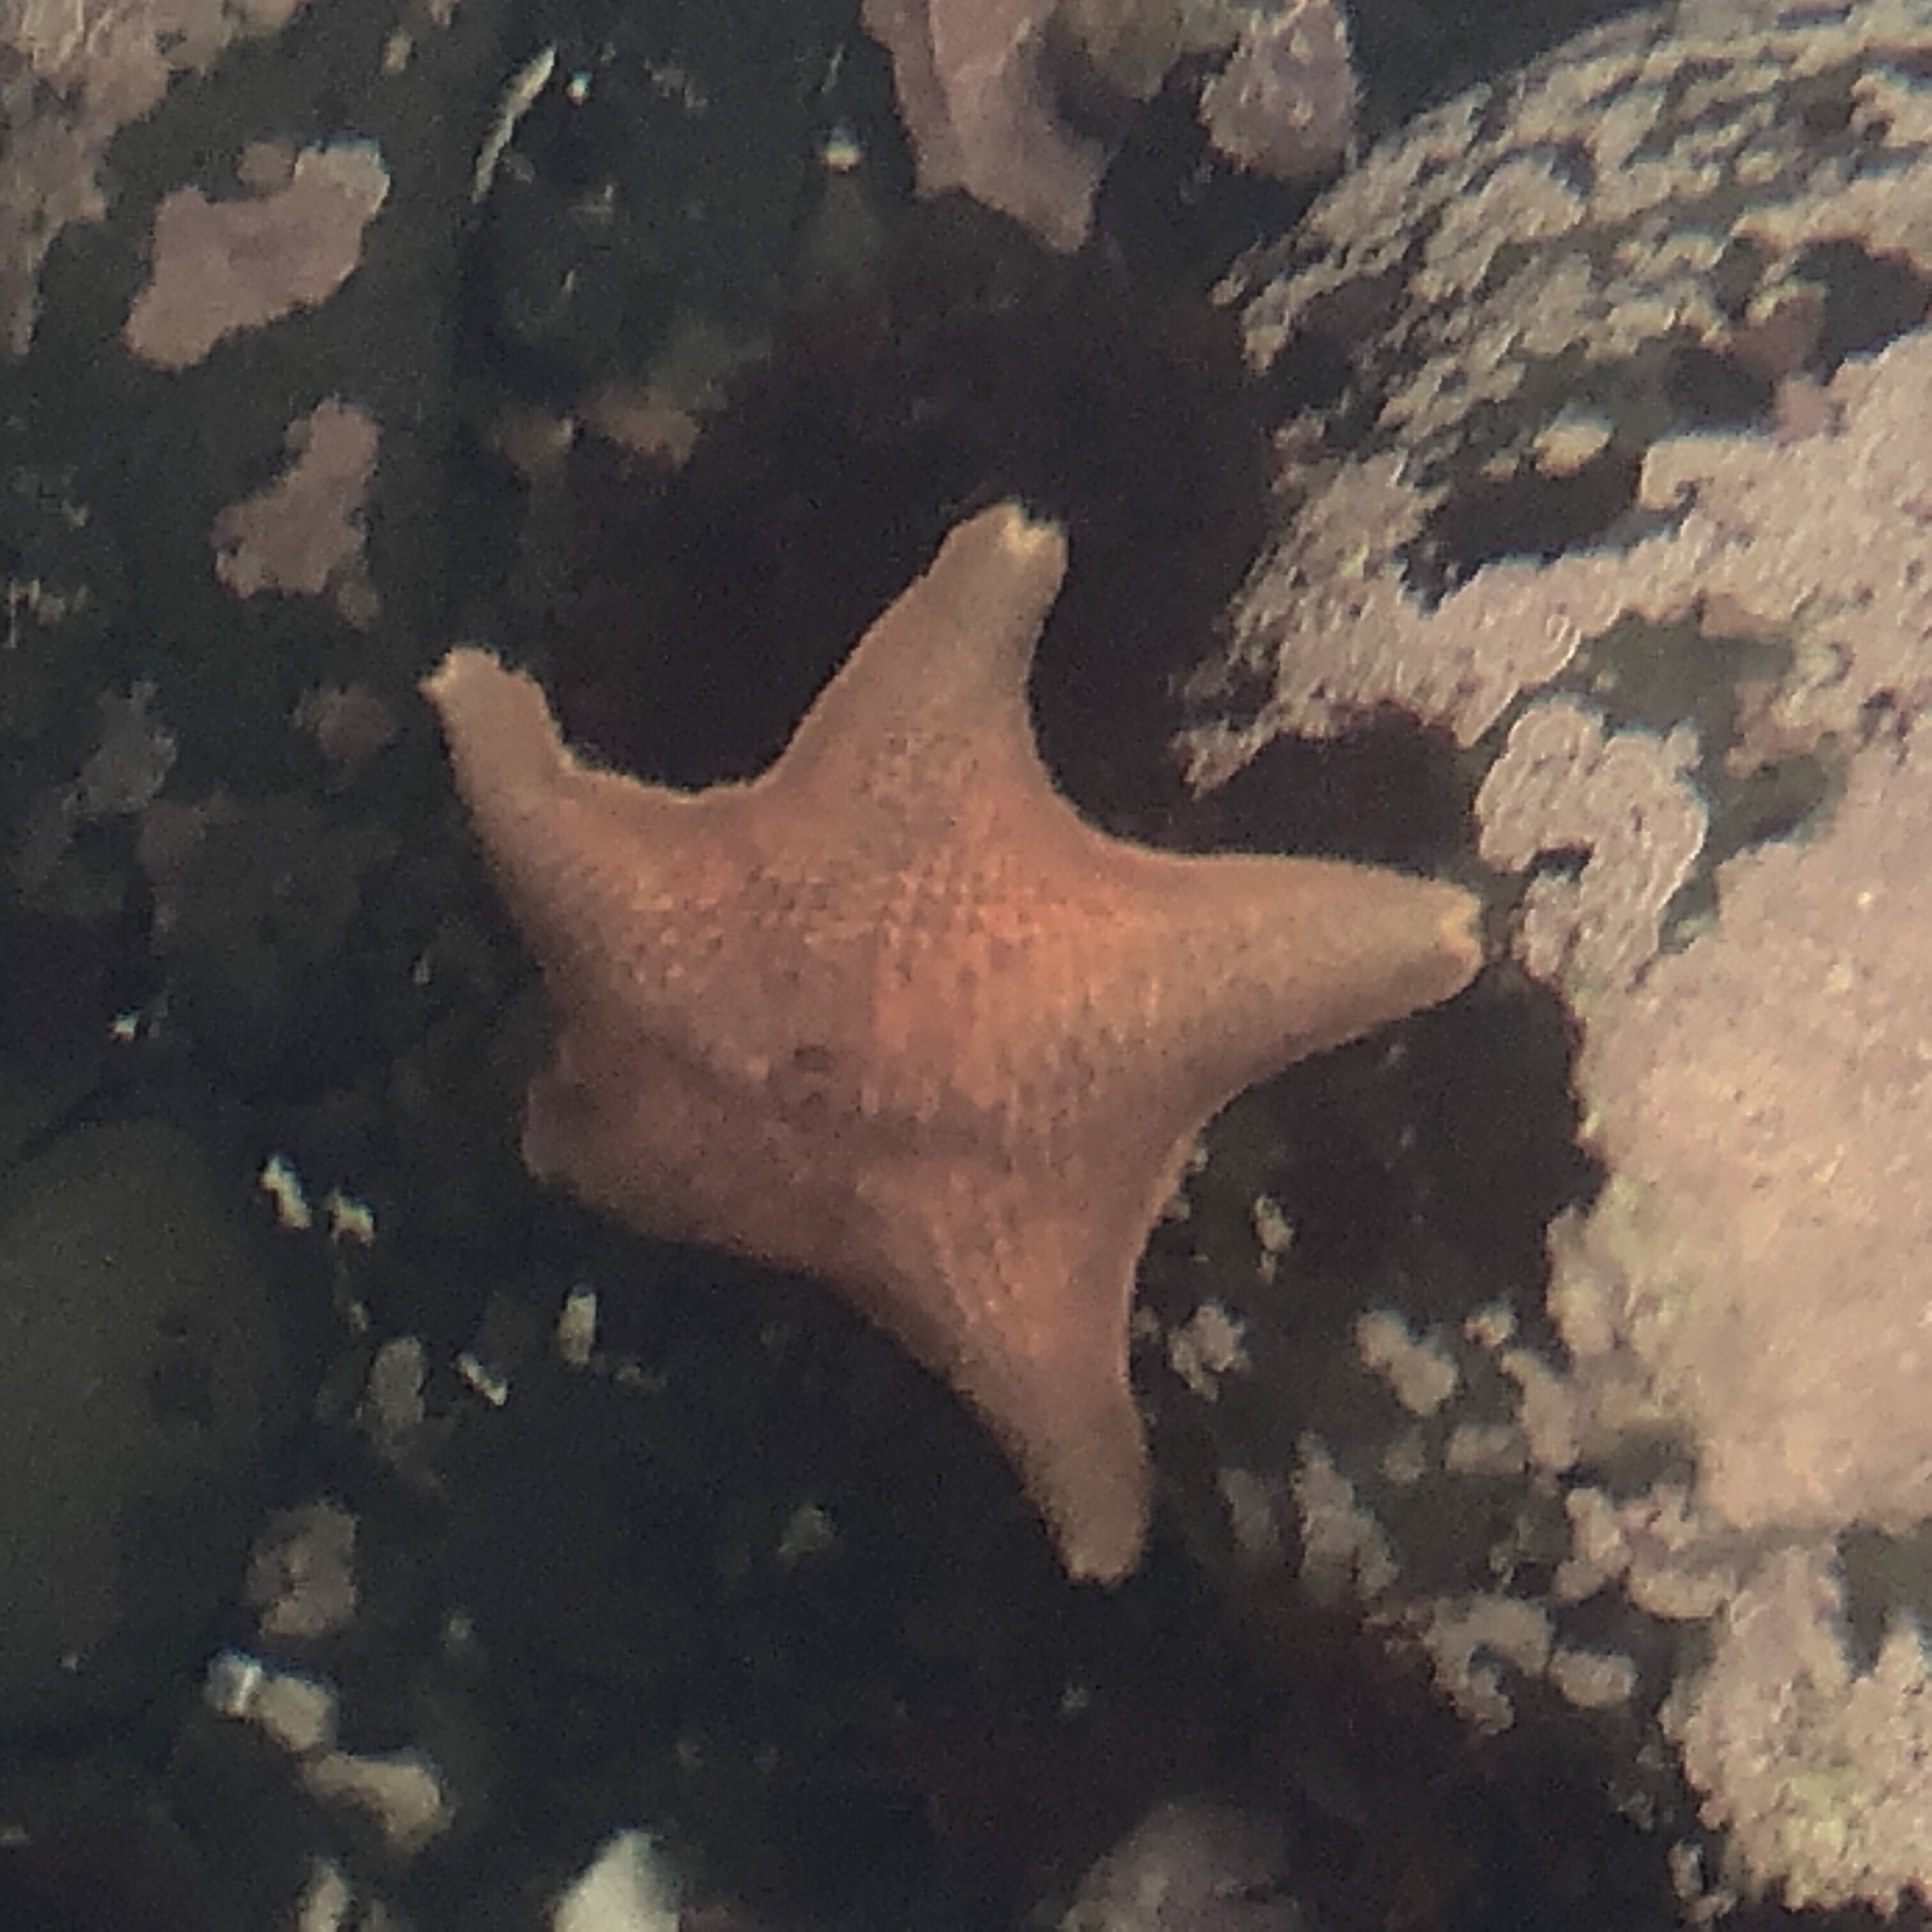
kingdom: Animalia
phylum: Echinodermata
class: Asteroidea
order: Valvatida
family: Asterinidae
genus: Patiria
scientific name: Patiria miniata
